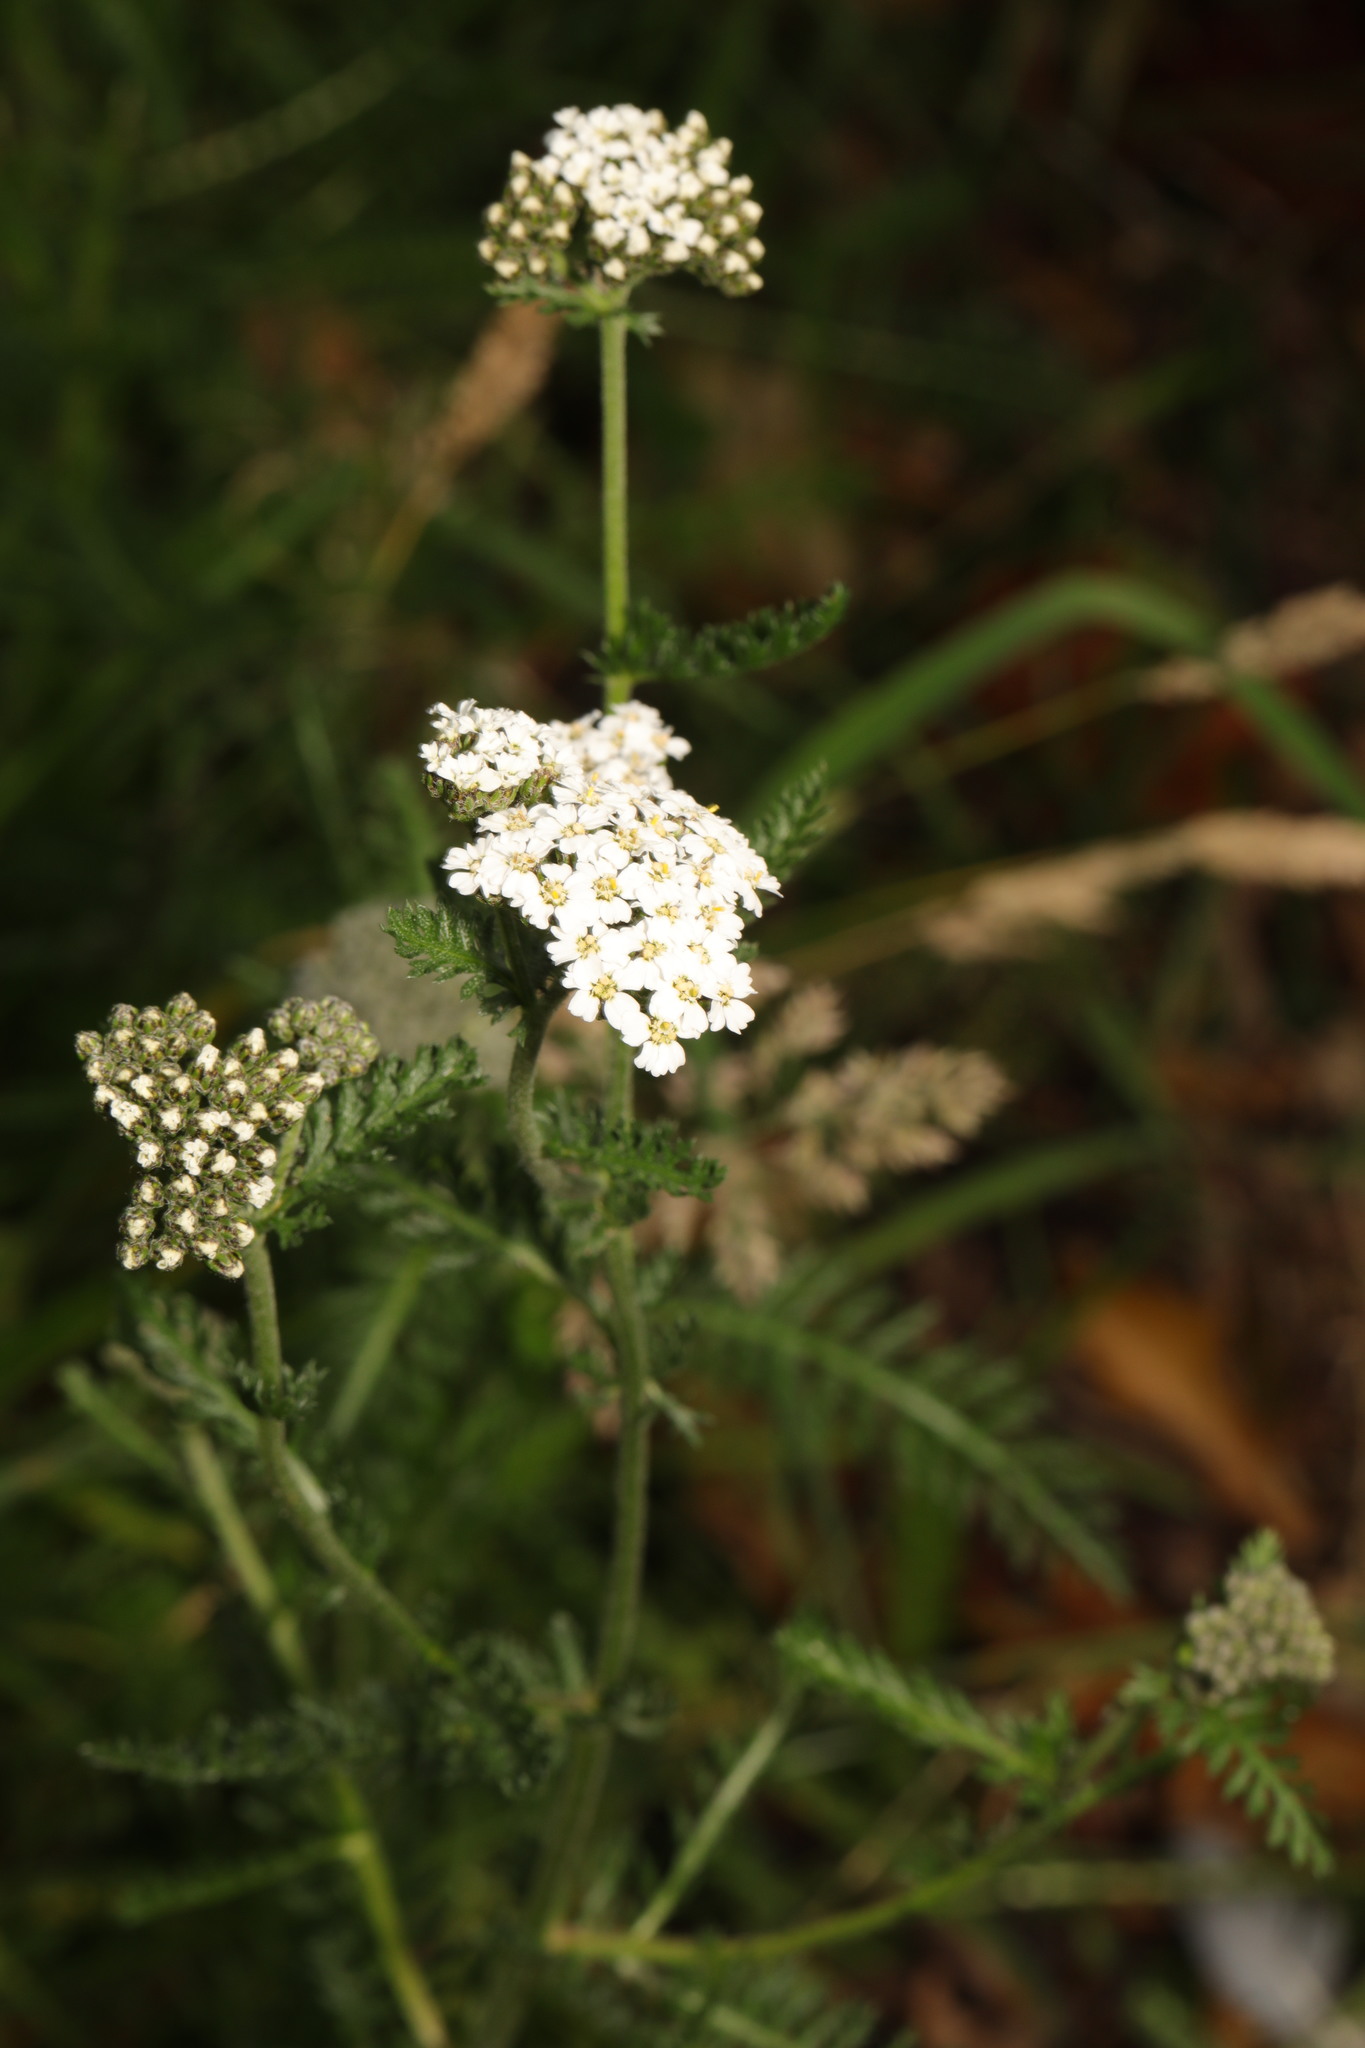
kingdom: Plantae
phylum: Tracheophyta
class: Magnoliopsida
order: Asterales
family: Asteraceae
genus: Achillea
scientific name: Achillea millefolium
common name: Yarrow
